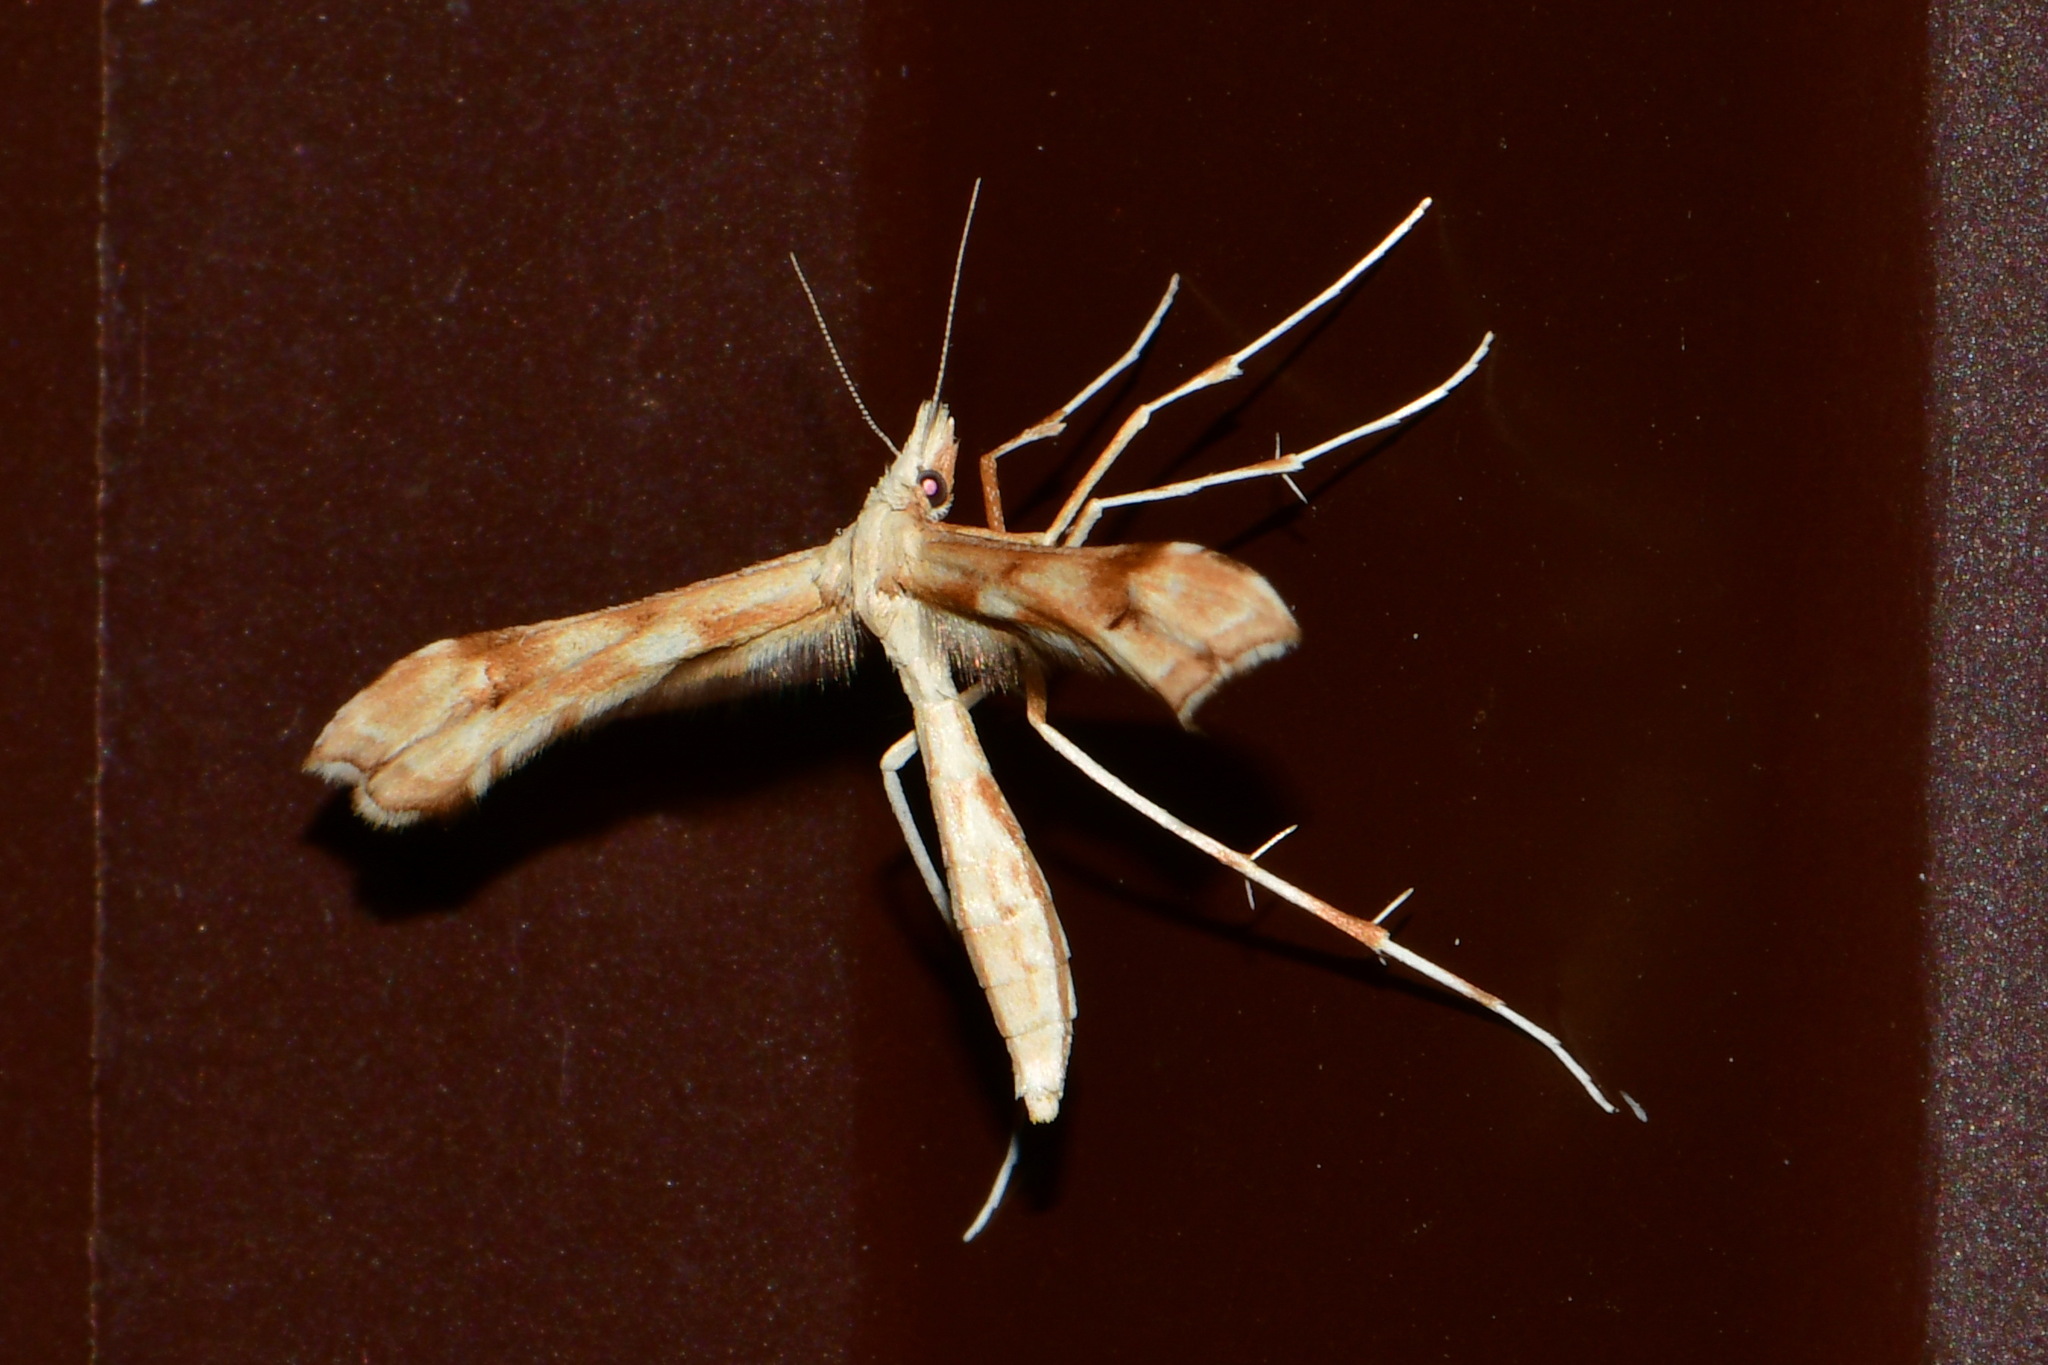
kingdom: Animalia
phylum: Arthropoda
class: Insecta
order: Lepidoptera
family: Pterophoridae
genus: Gillmeria
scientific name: Gillmeria ochrodactyla
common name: Tansy plume
